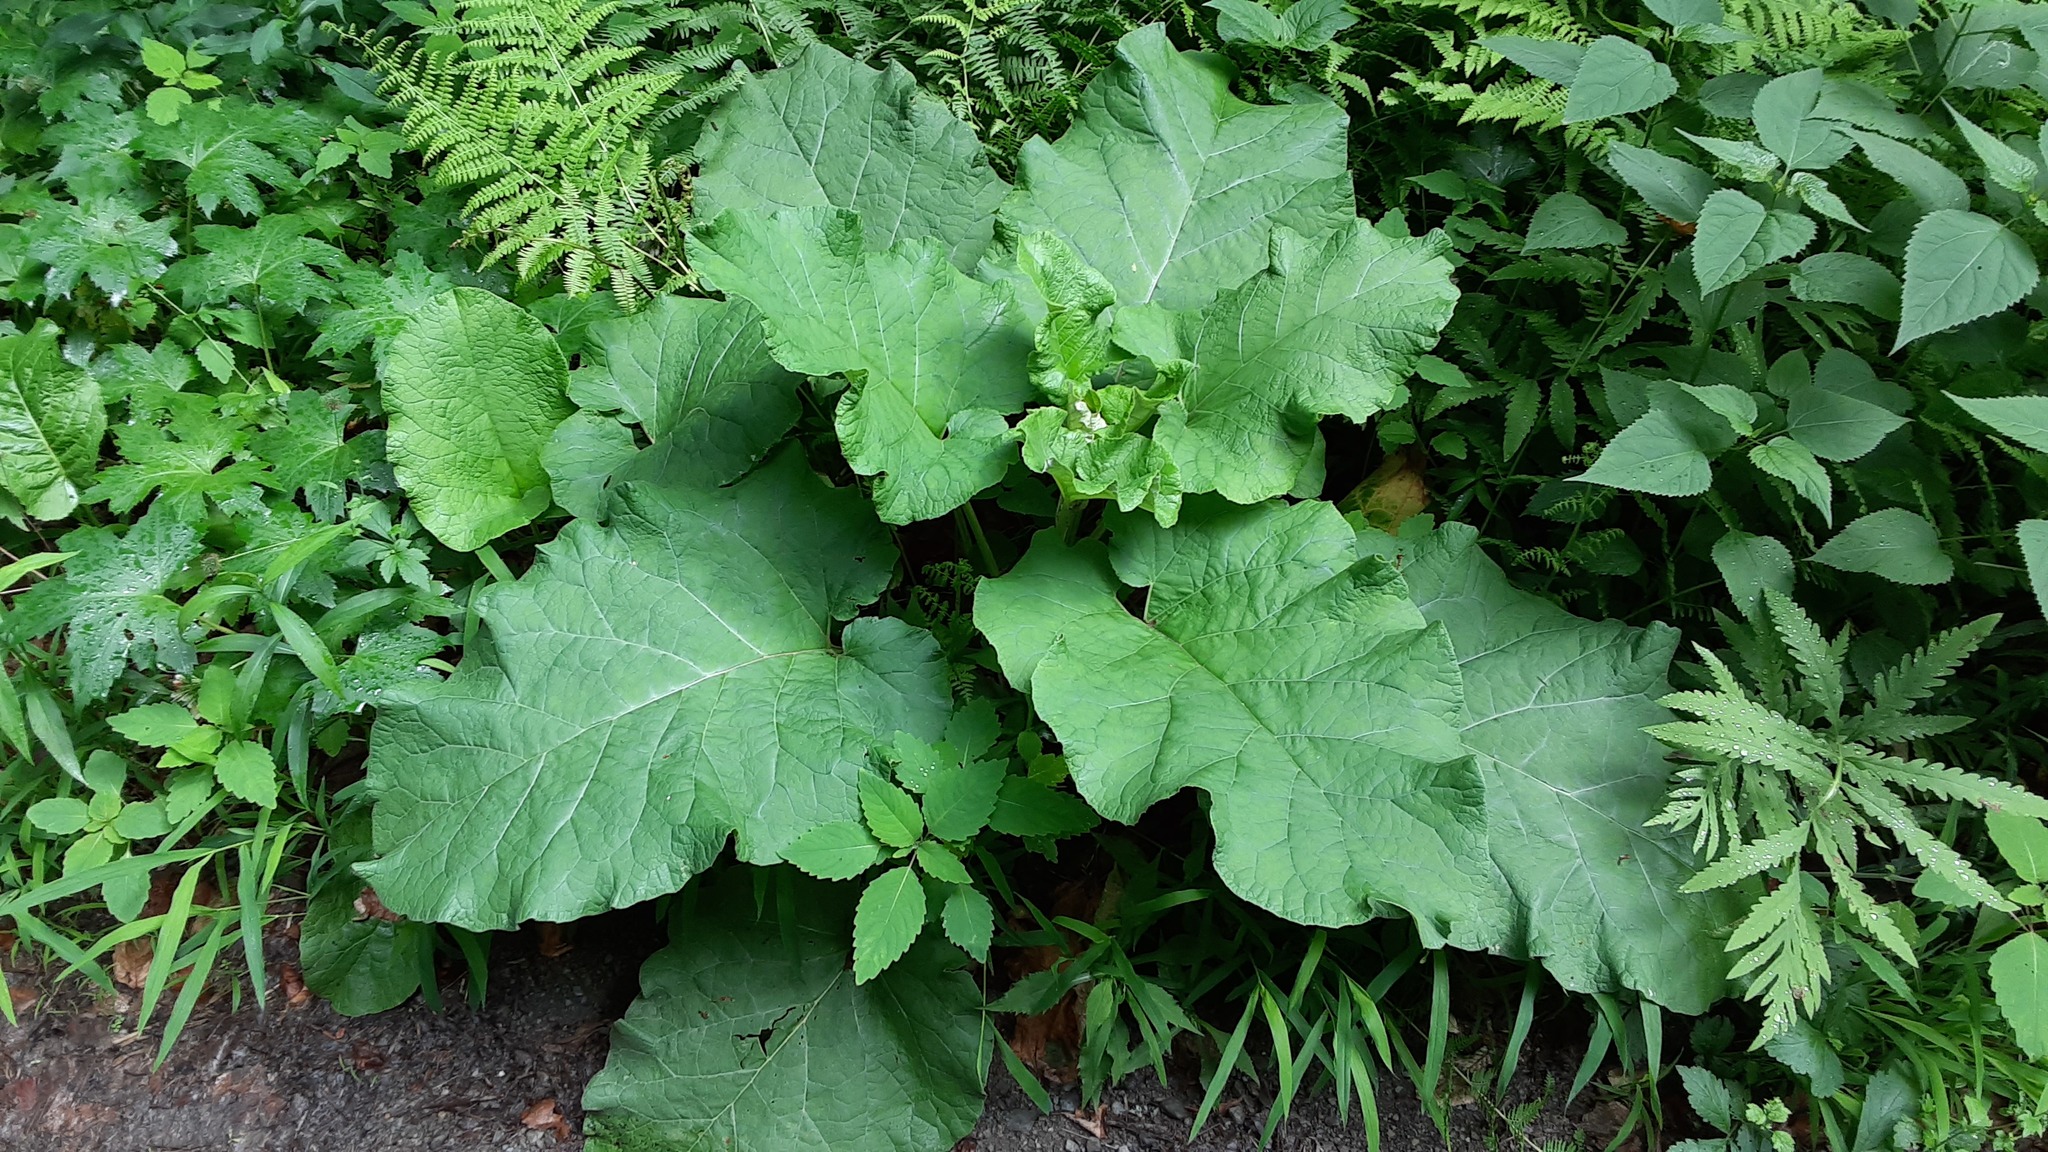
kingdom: Plantae
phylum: Tracheophyta
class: Magnoliopsida
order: Asterales
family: Asteraceae
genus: Arctium
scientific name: Arctium
